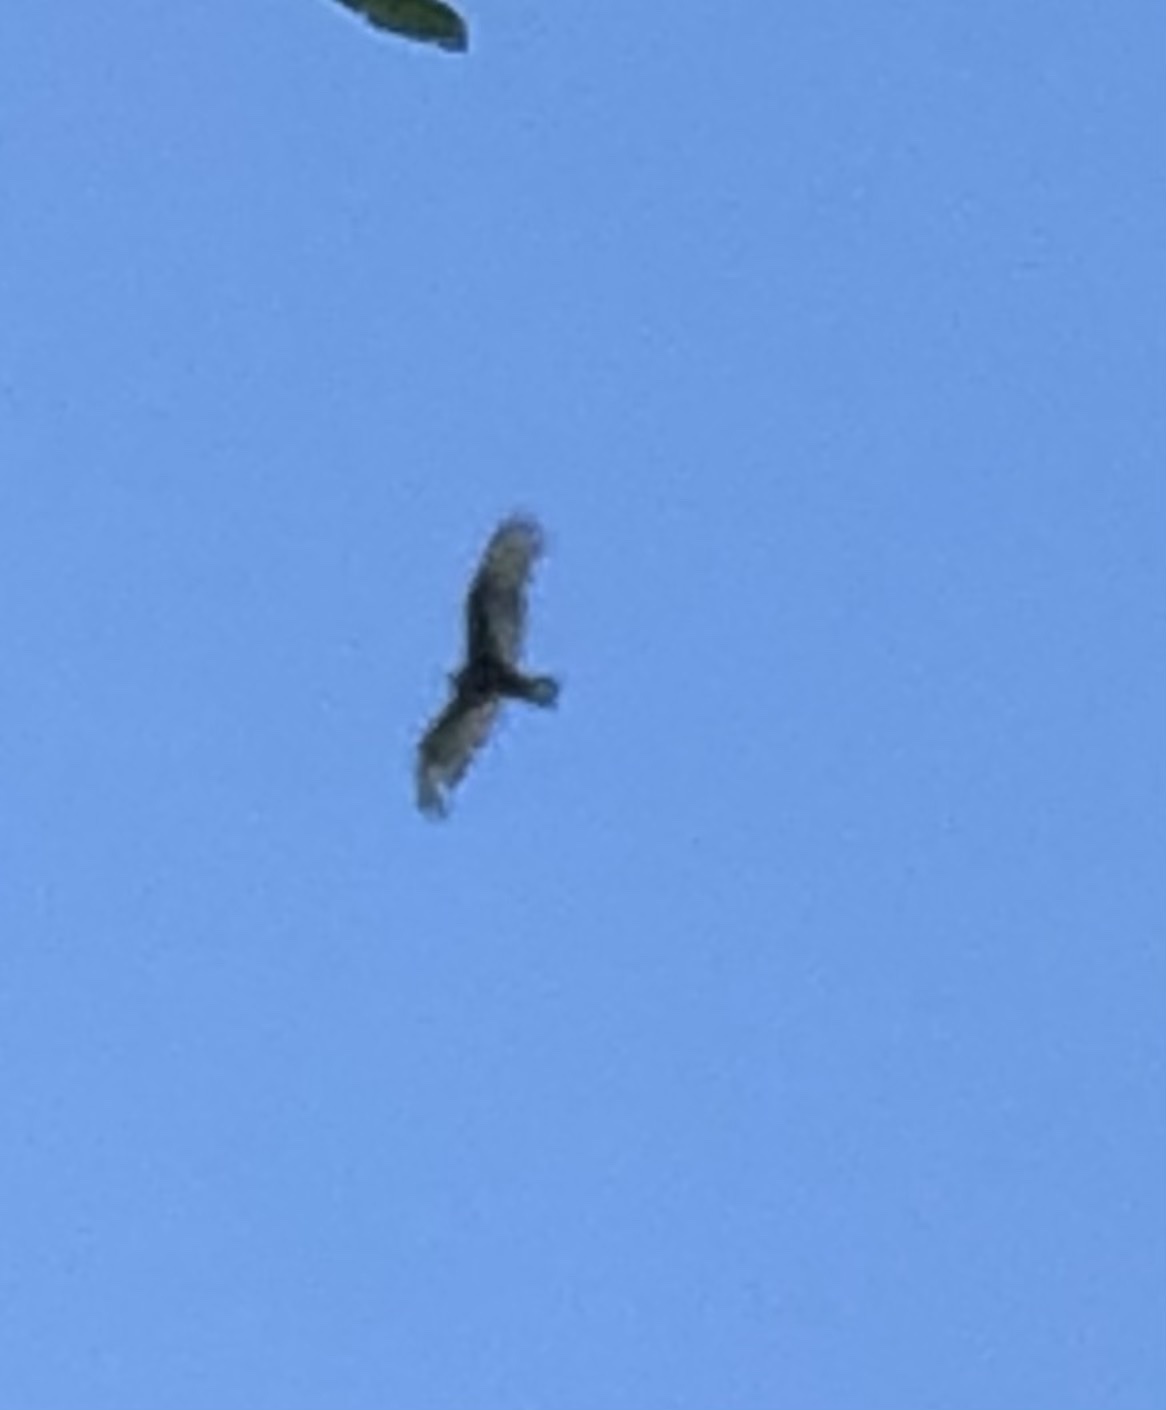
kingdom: Animalia
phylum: Chordata
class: Aves
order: Accipitriformes
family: Cathartidae
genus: Cathartes
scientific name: Cathartes aura
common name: Turkey vulture
